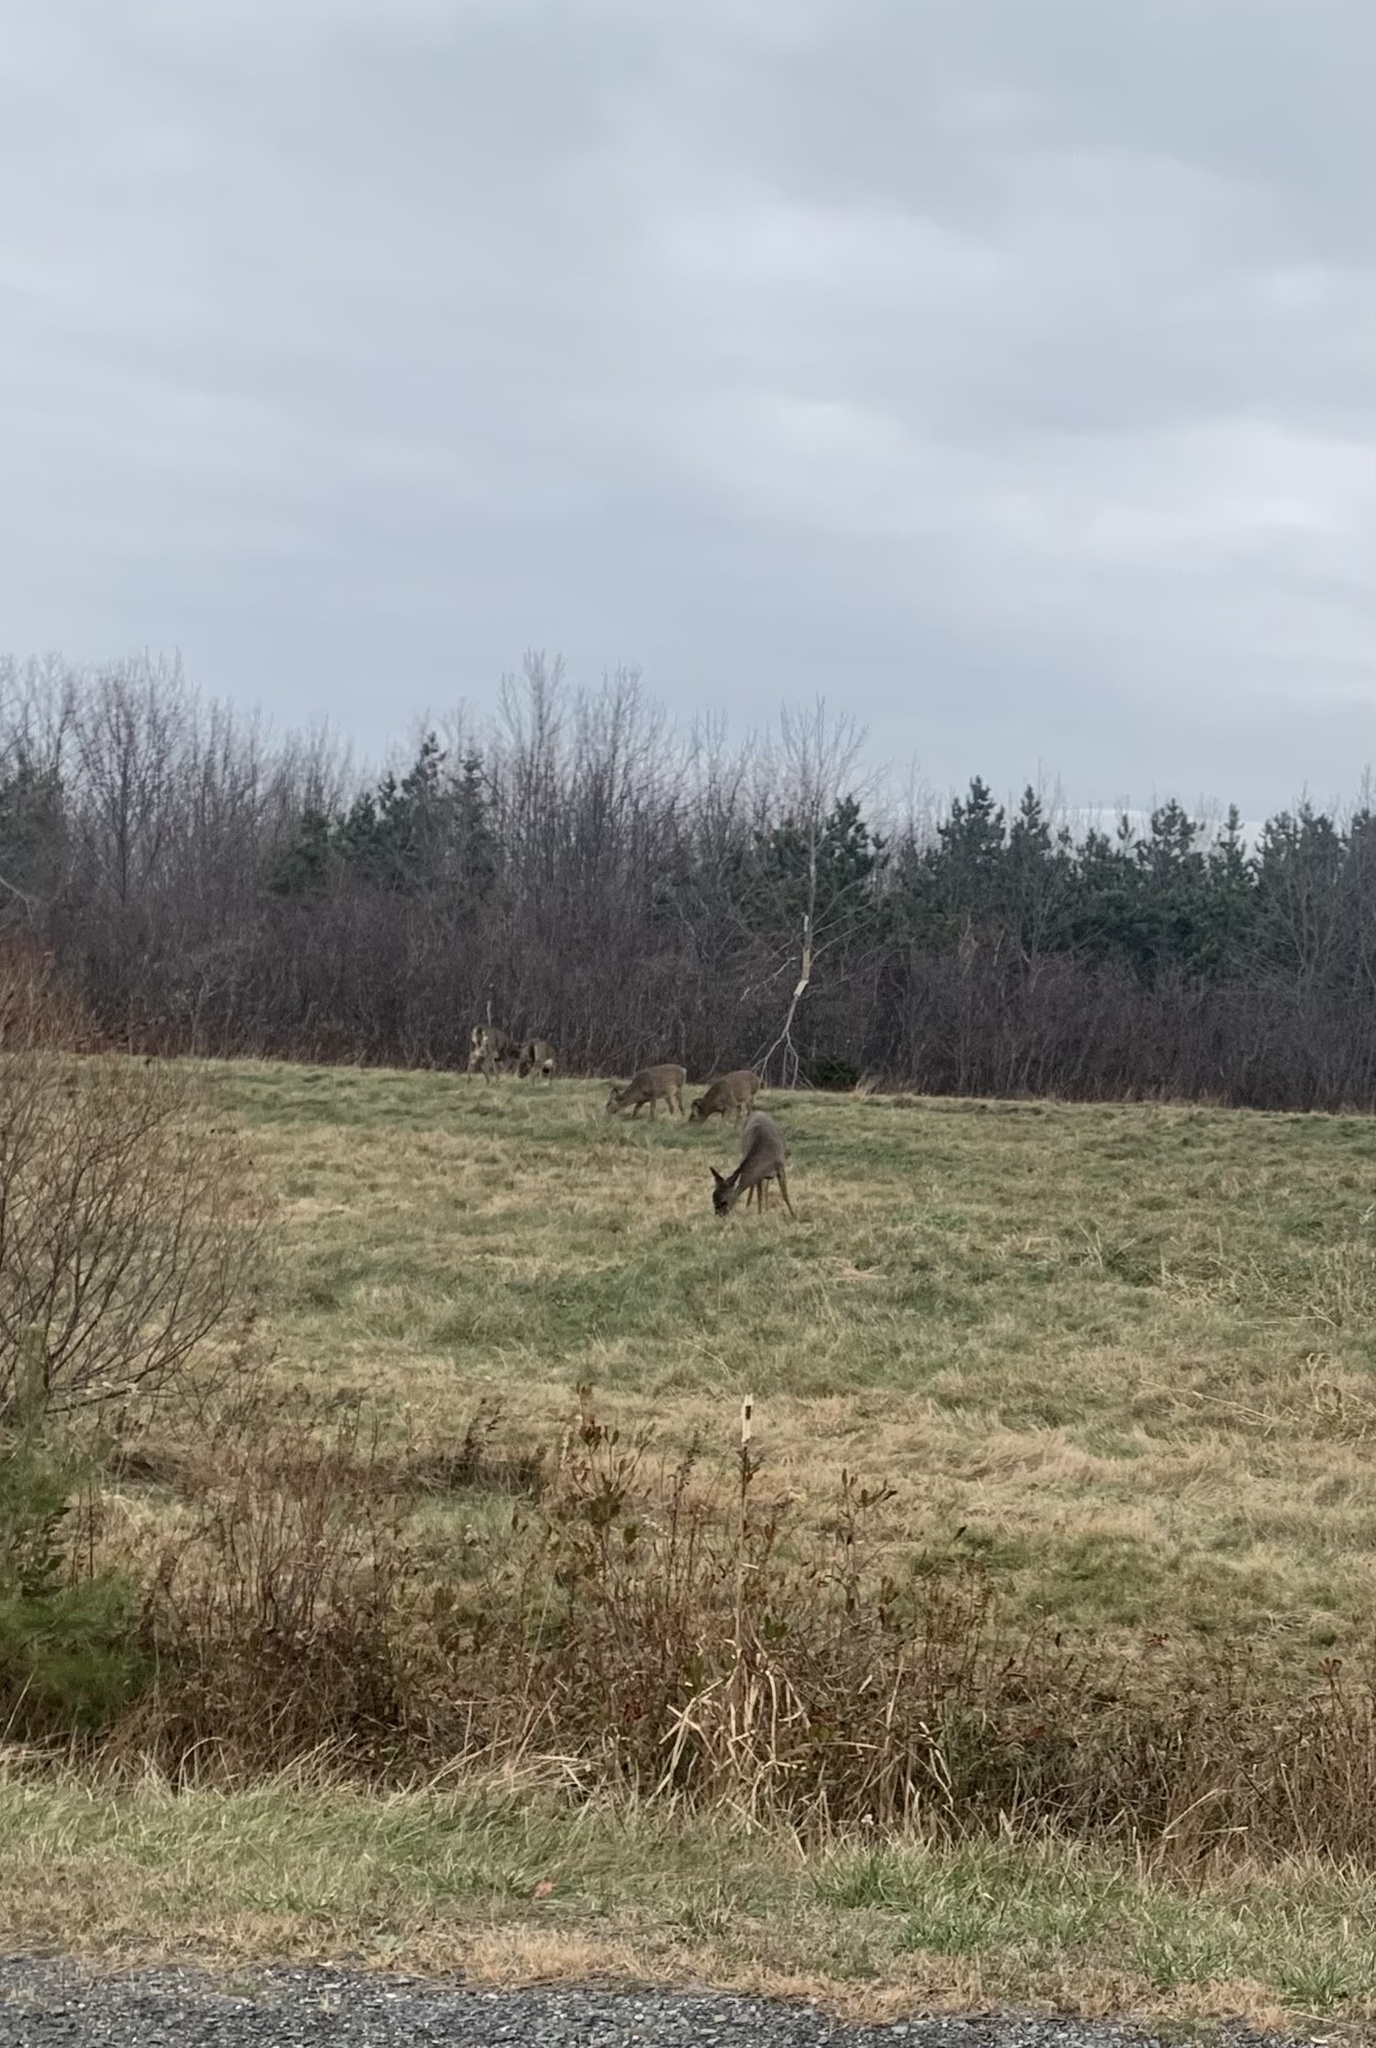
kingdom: Animalia
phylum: Chordata
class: Mammalia
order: Artiodactyla
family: Cervidae
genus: Odocoileus
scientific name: Odocoileus virginianus
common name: White-tailed deer
